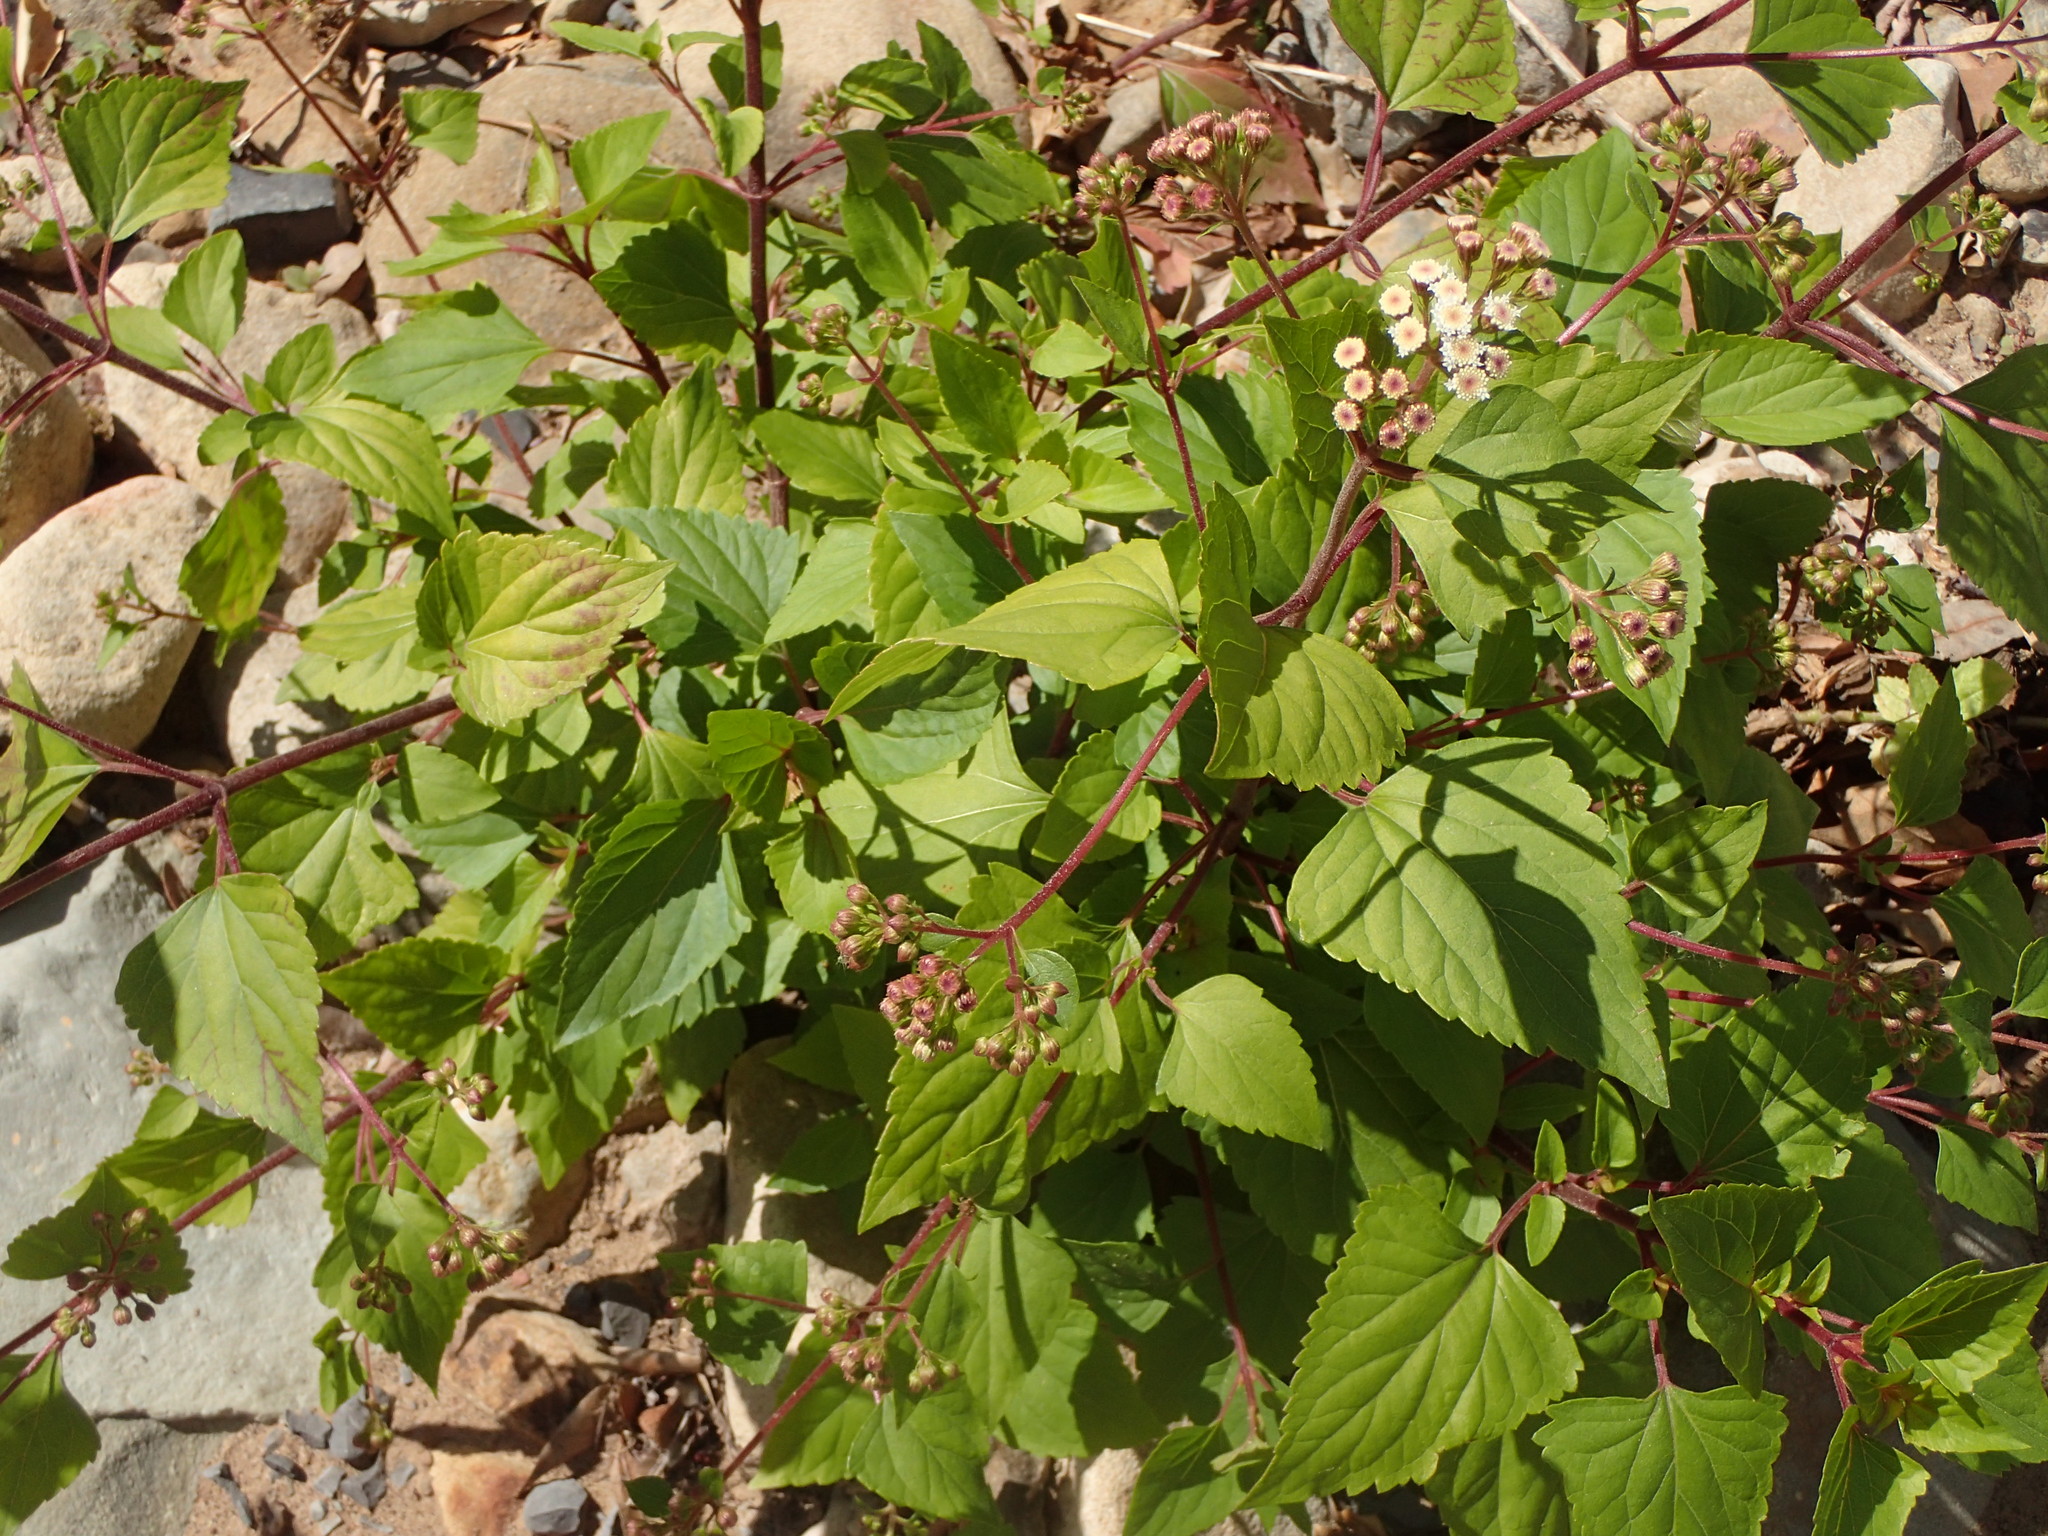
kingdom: Plantae
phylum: Tracheophyta
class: Magnoliopsida
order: Asterales
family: Asteraceae
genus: Ageratina
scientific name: Ageratina adenophora
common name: Sticky snakeroot
